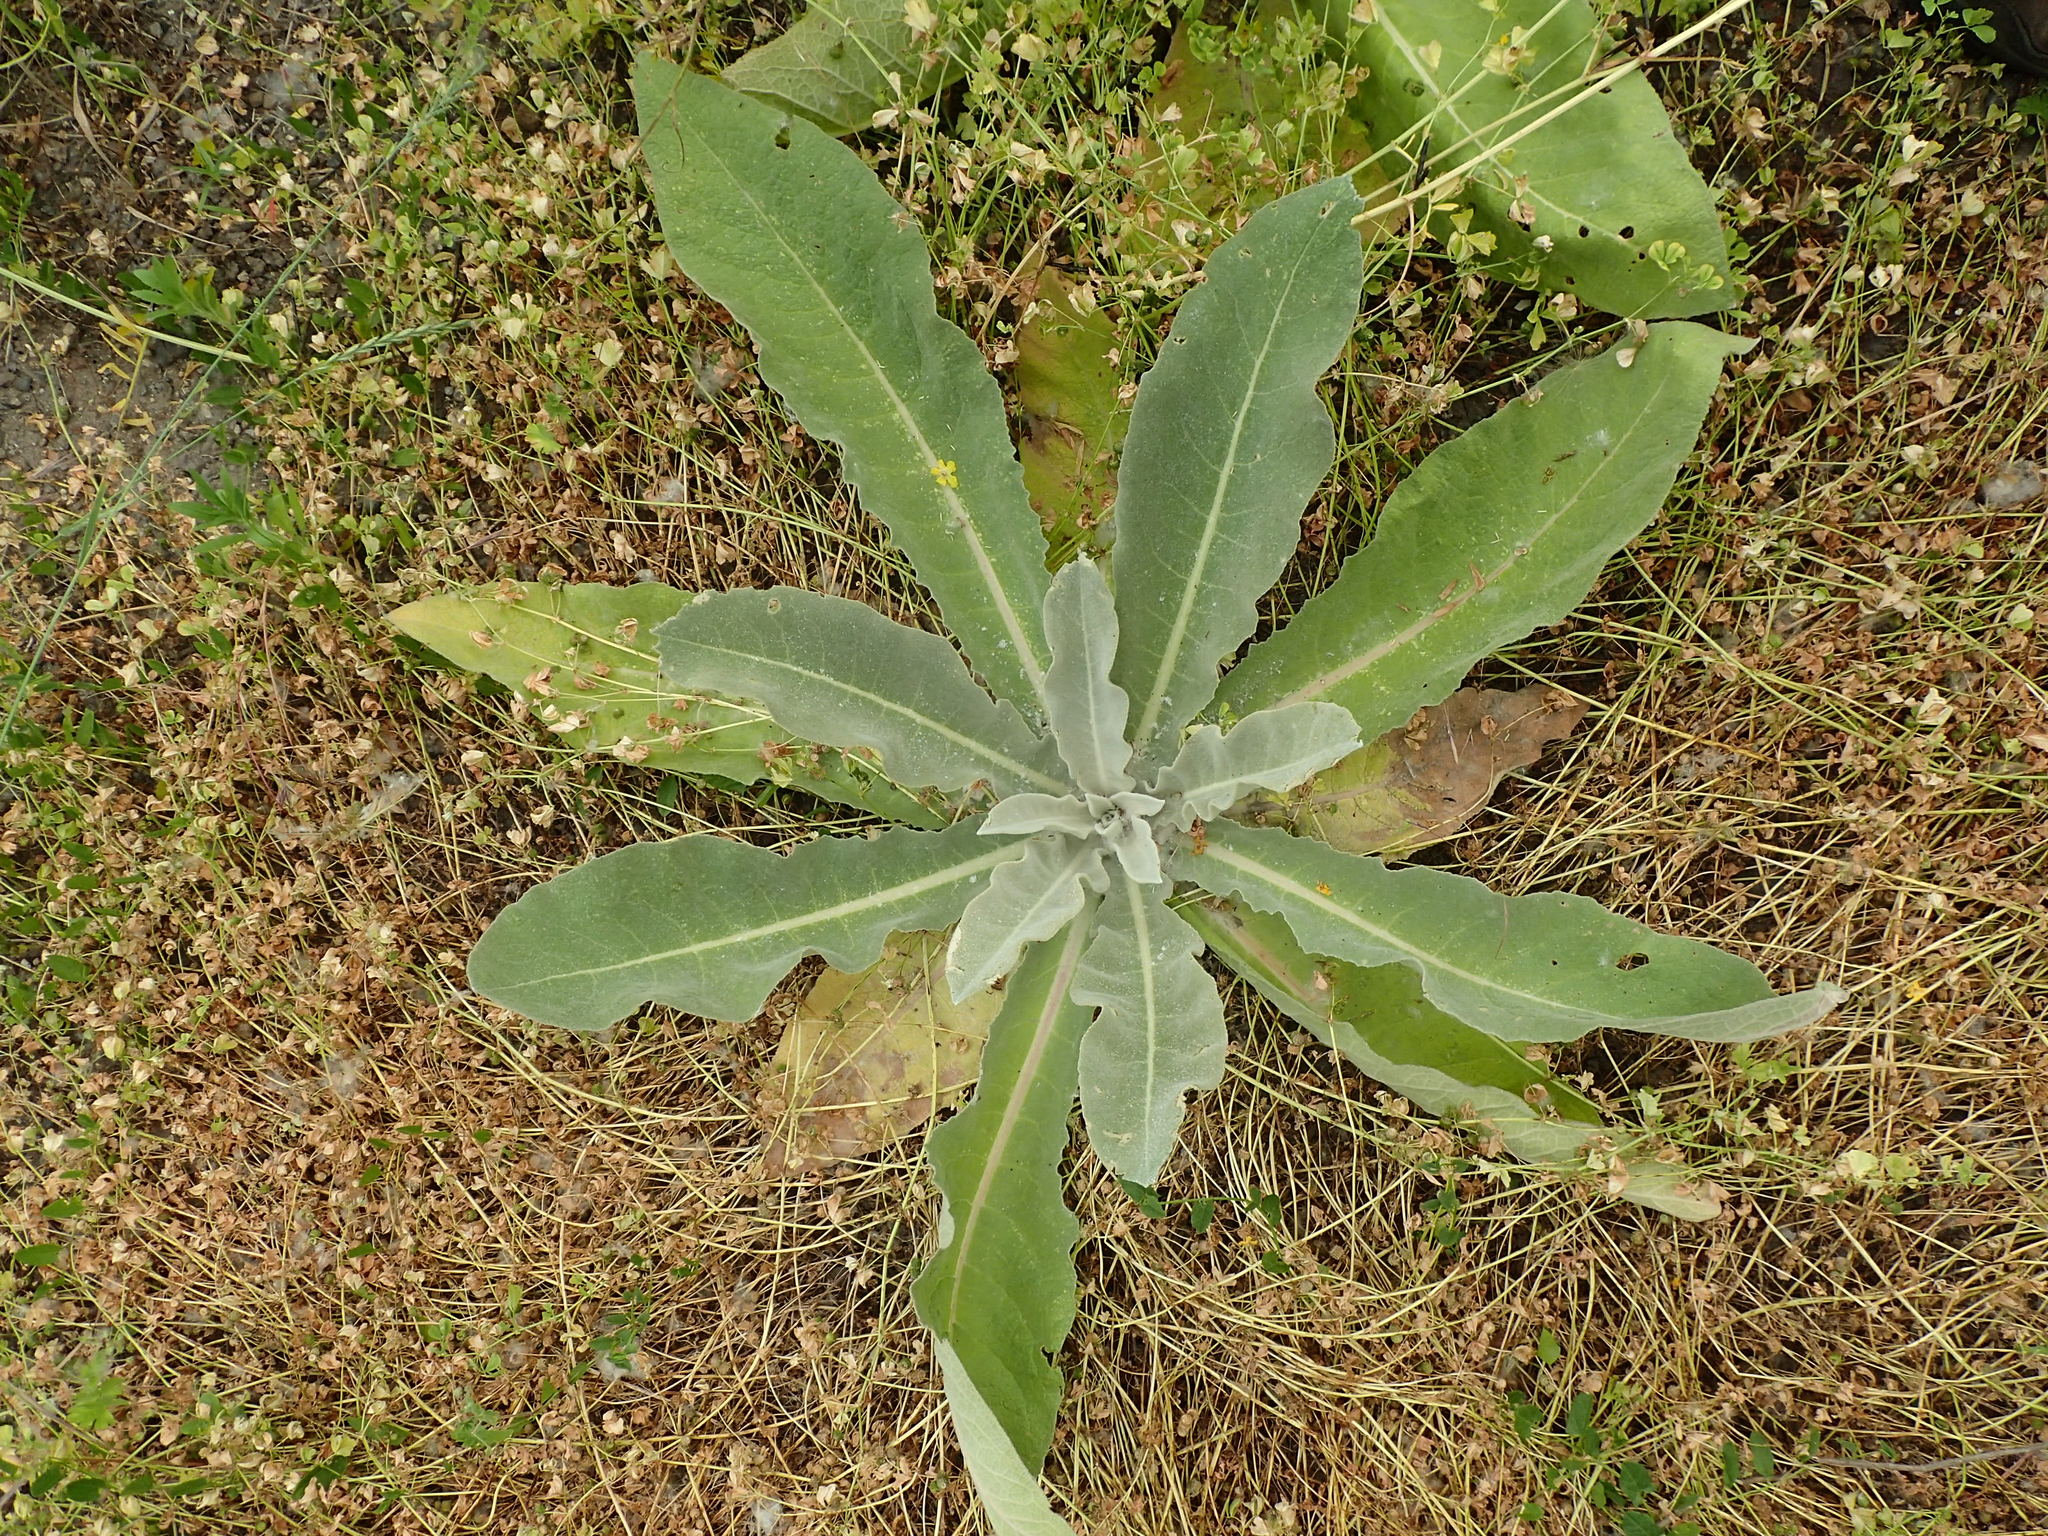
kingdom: Plantae
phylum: Tracheophyta
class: Magnoliopsida
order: Lamiales
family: Scrophulariaceae
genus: Verbascum
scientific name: Verbascum pulverulentum
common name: Broad-leaf mullein
